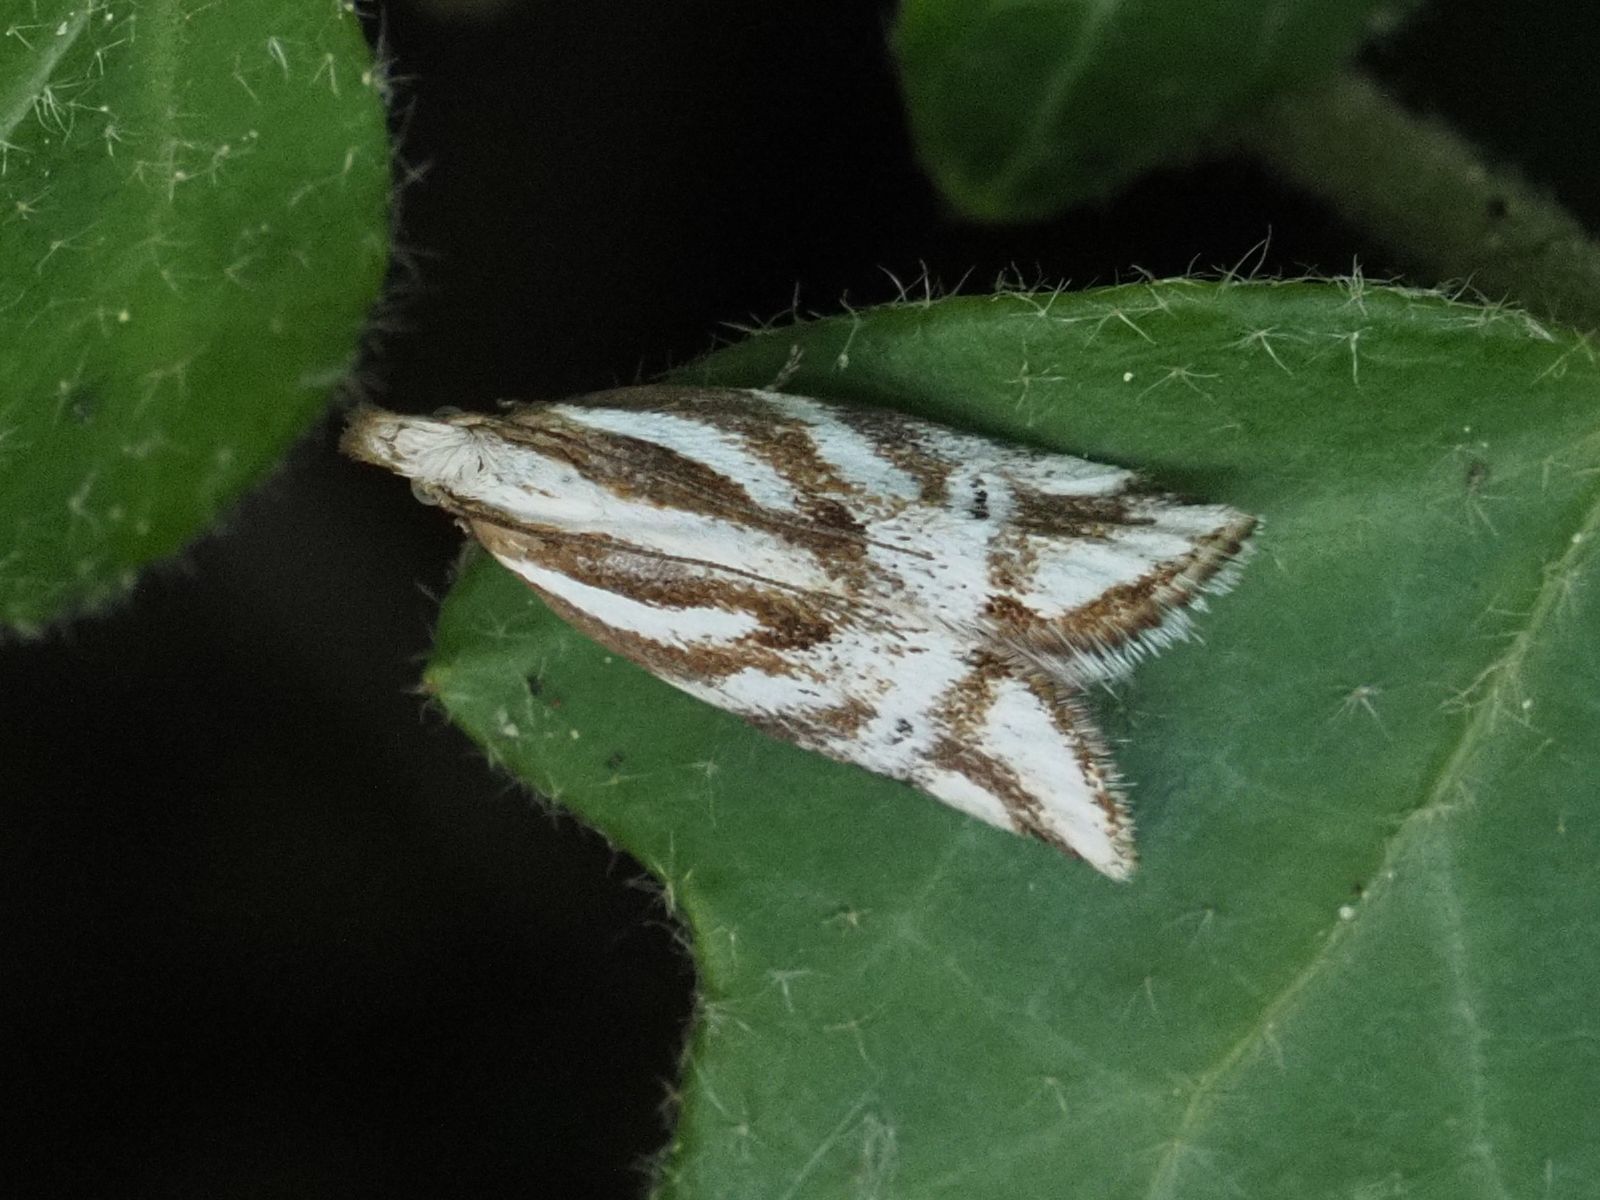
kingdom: Animalia
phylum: Arthropoda
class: Insecta
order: Lepidoptera
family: Depressariidae
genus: Orophia
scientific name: Orophia denisella
